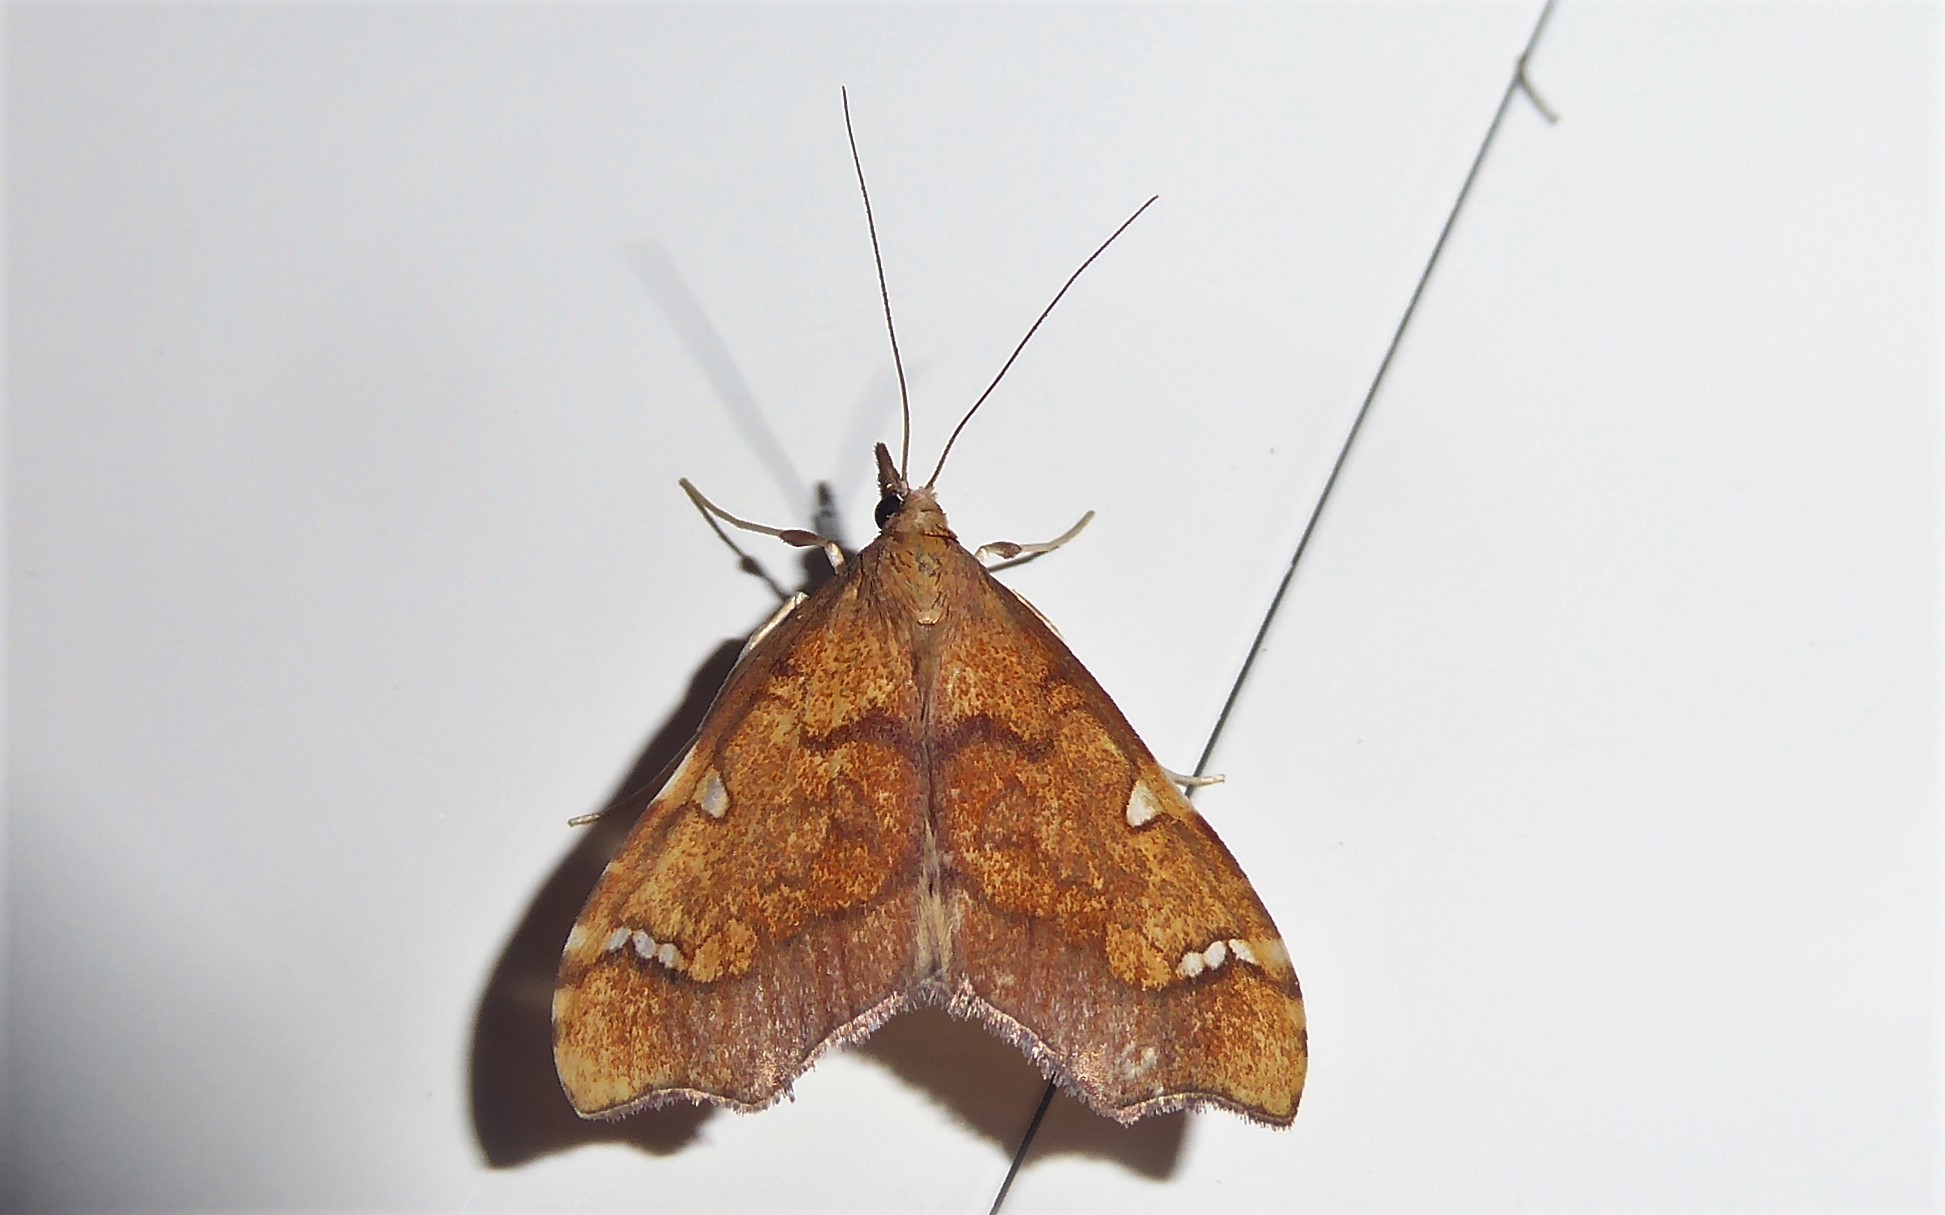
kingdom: Animalia
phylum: Arthropoda
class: Insecta
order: Lepidoptera
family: Crambidae
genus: Deana
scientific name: Deana hybreasalis
